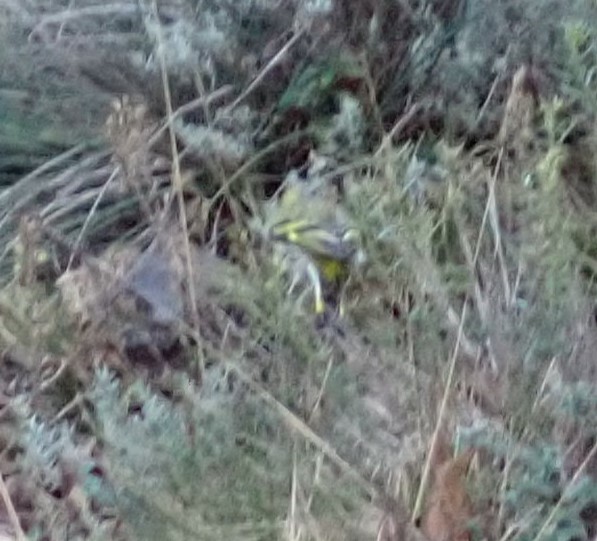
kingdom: Animalia
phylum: Chordata
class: Aves
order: Passeriformes
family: Fringillidae
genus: Spinus
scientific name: Spinus spinus
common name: Eurasian siskin
